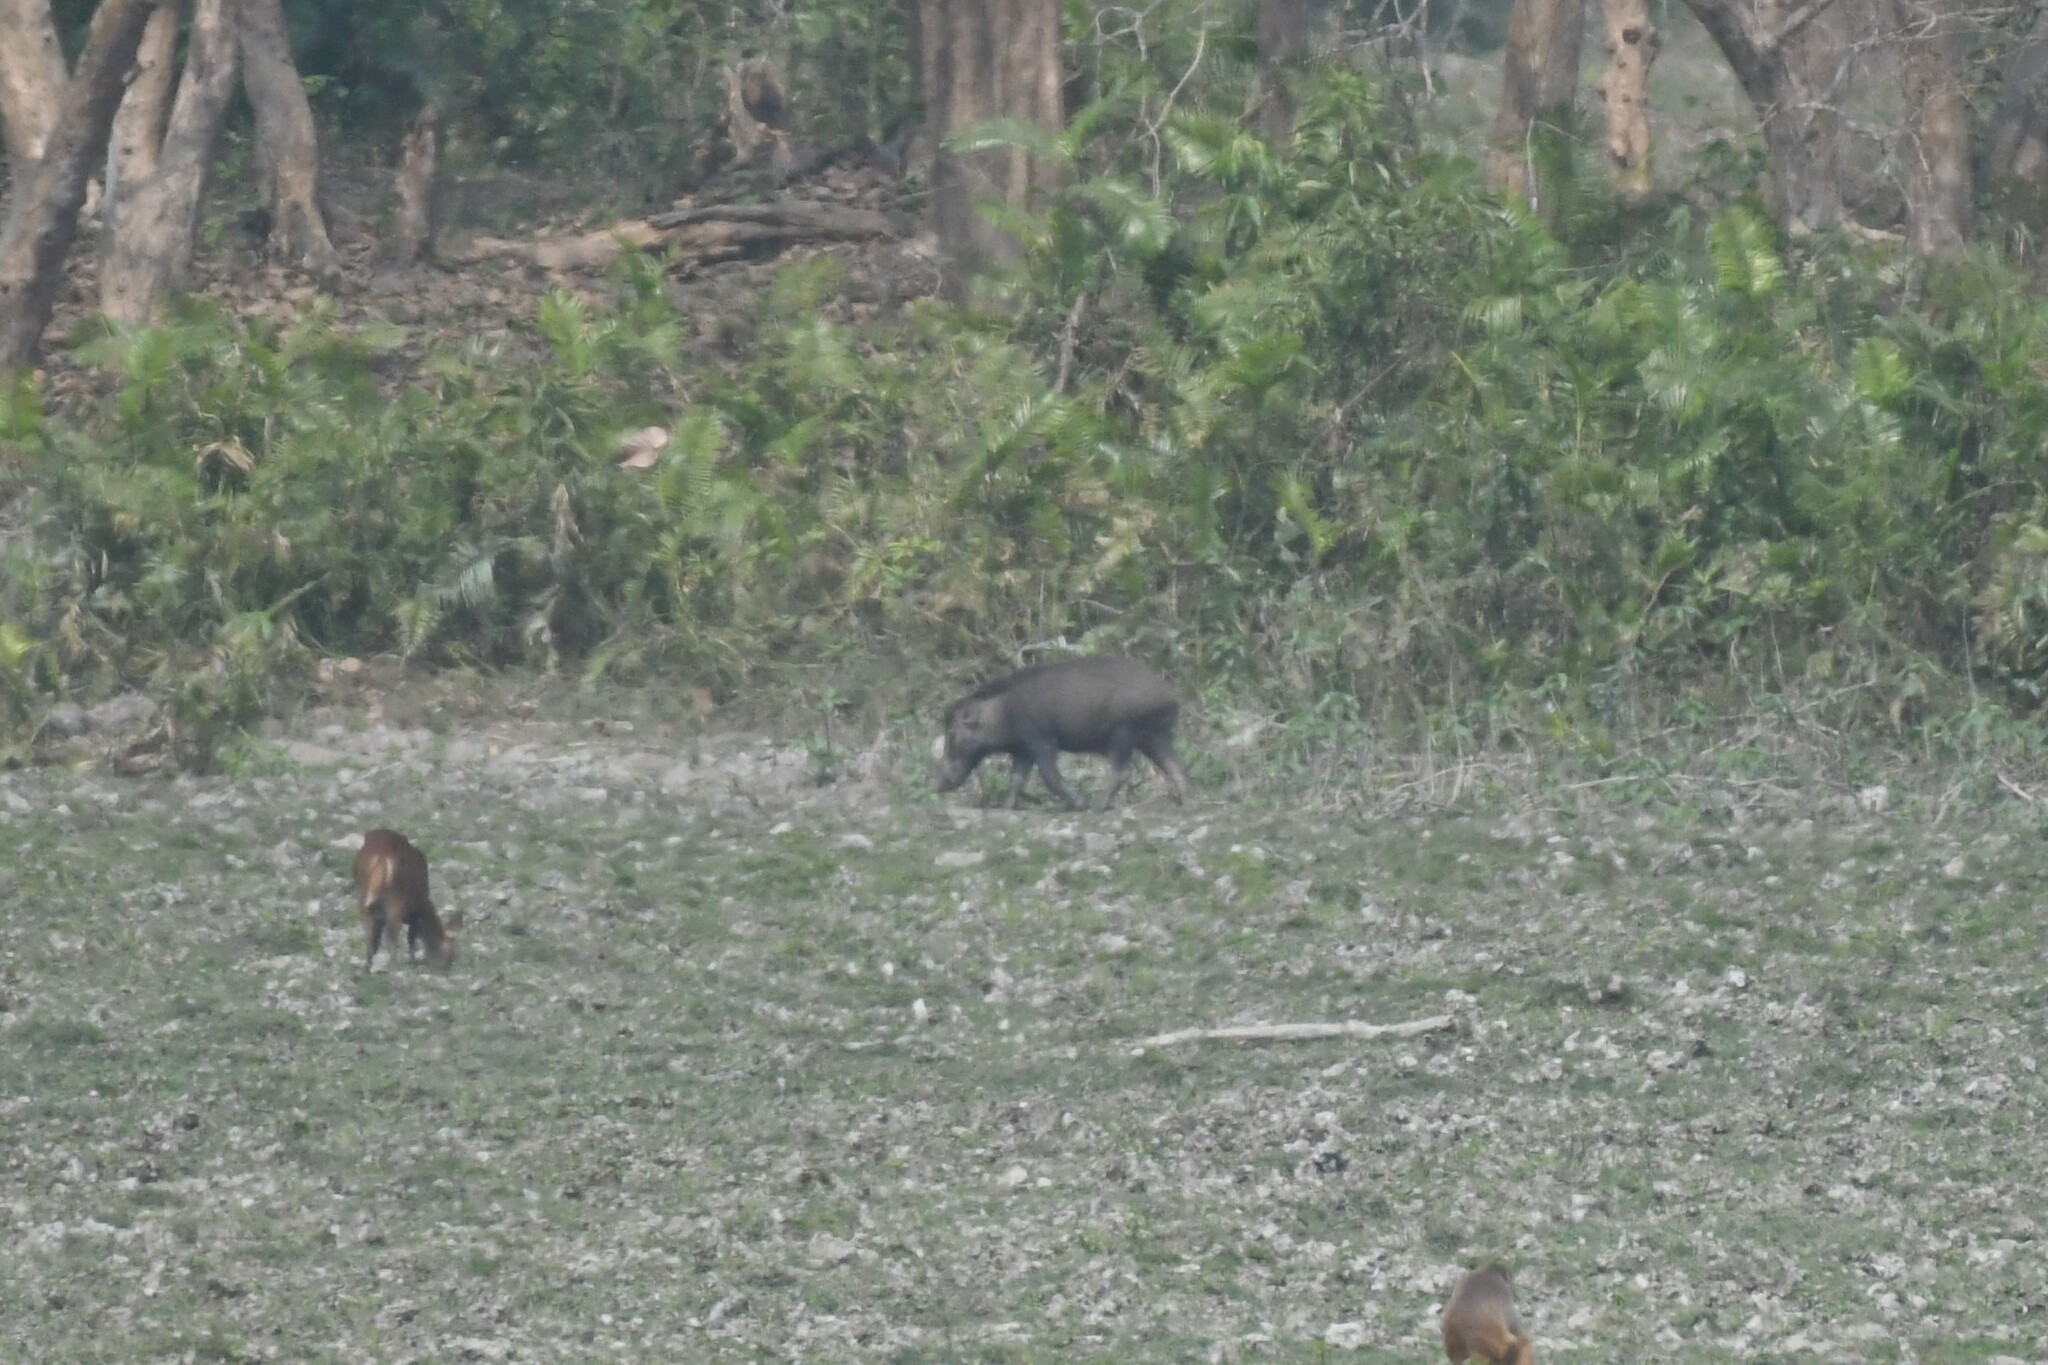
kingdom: Animalia
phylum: Chordata
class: Mammalia
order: Artiodactyla
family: Suidae
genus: Sus
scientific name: Sus scrofa
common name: Wild boar
